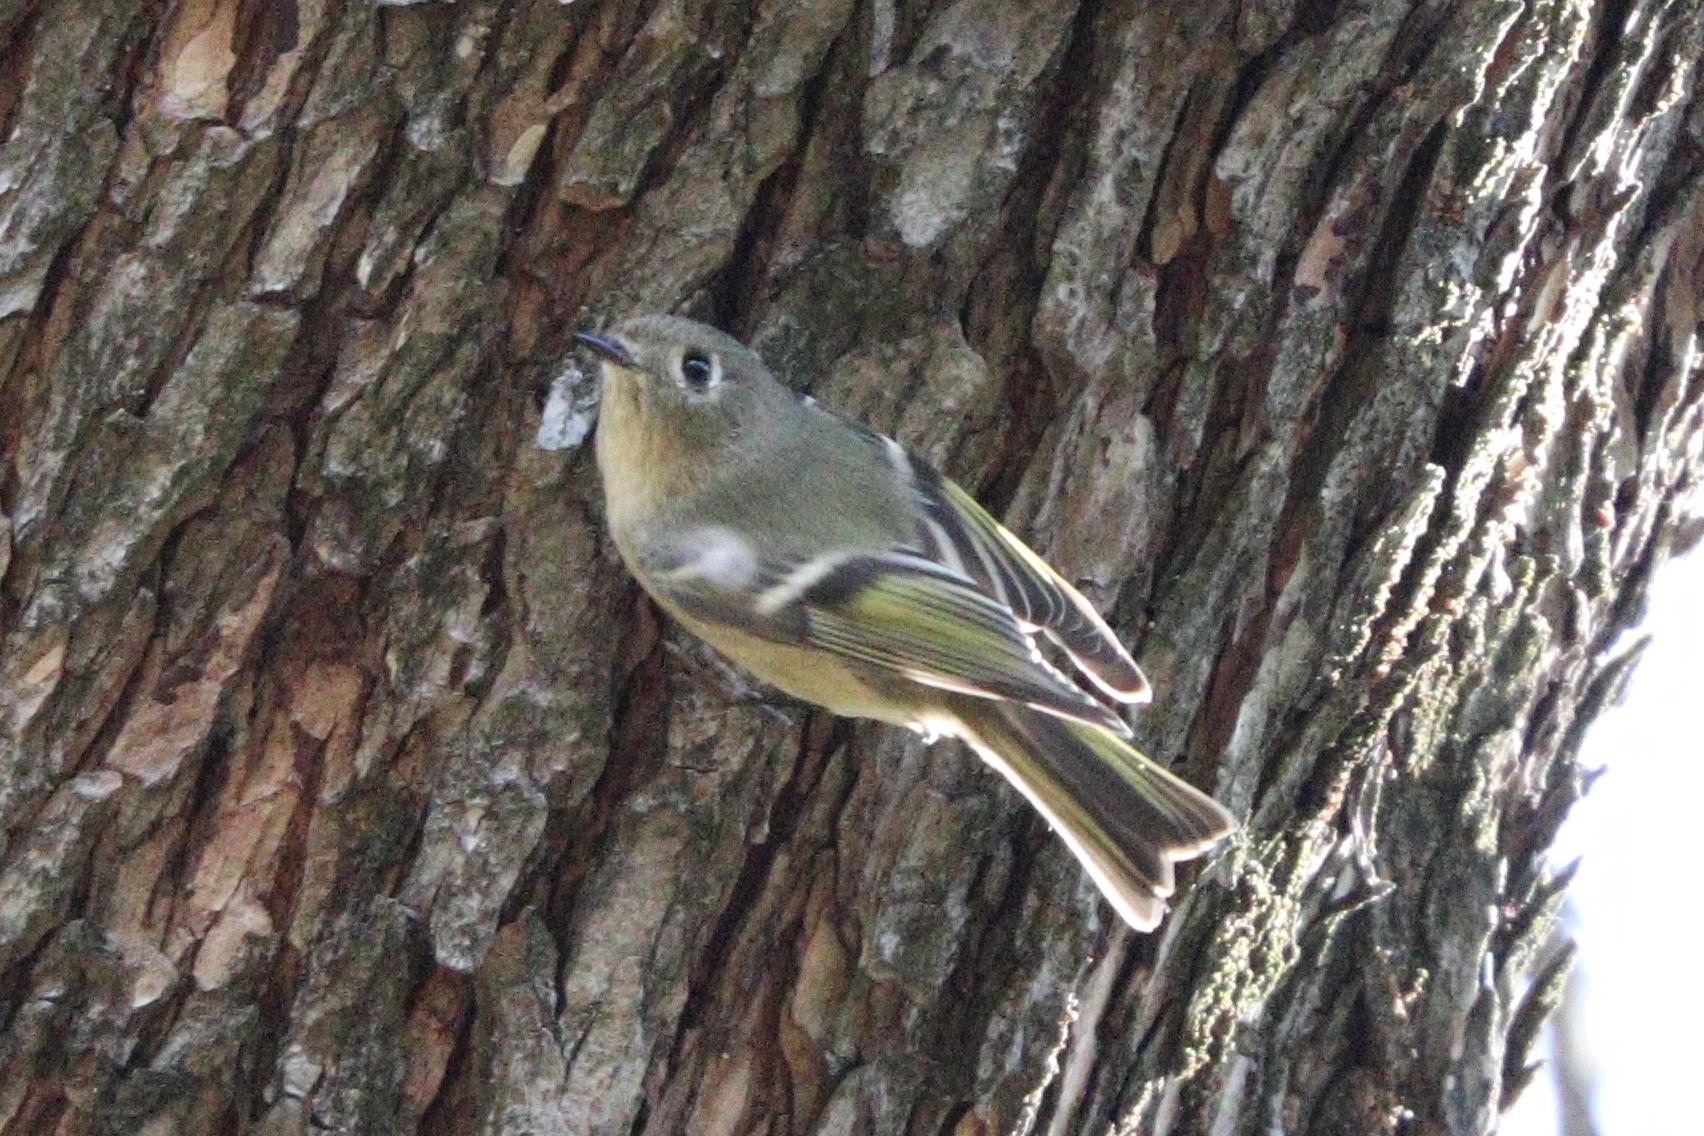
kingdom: Animalia
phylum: Chordata
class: Aves
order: Passeriformes
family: Regulidae
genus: Regulus
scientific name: Regulus calendula
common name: Ruby-crowned kinglet
